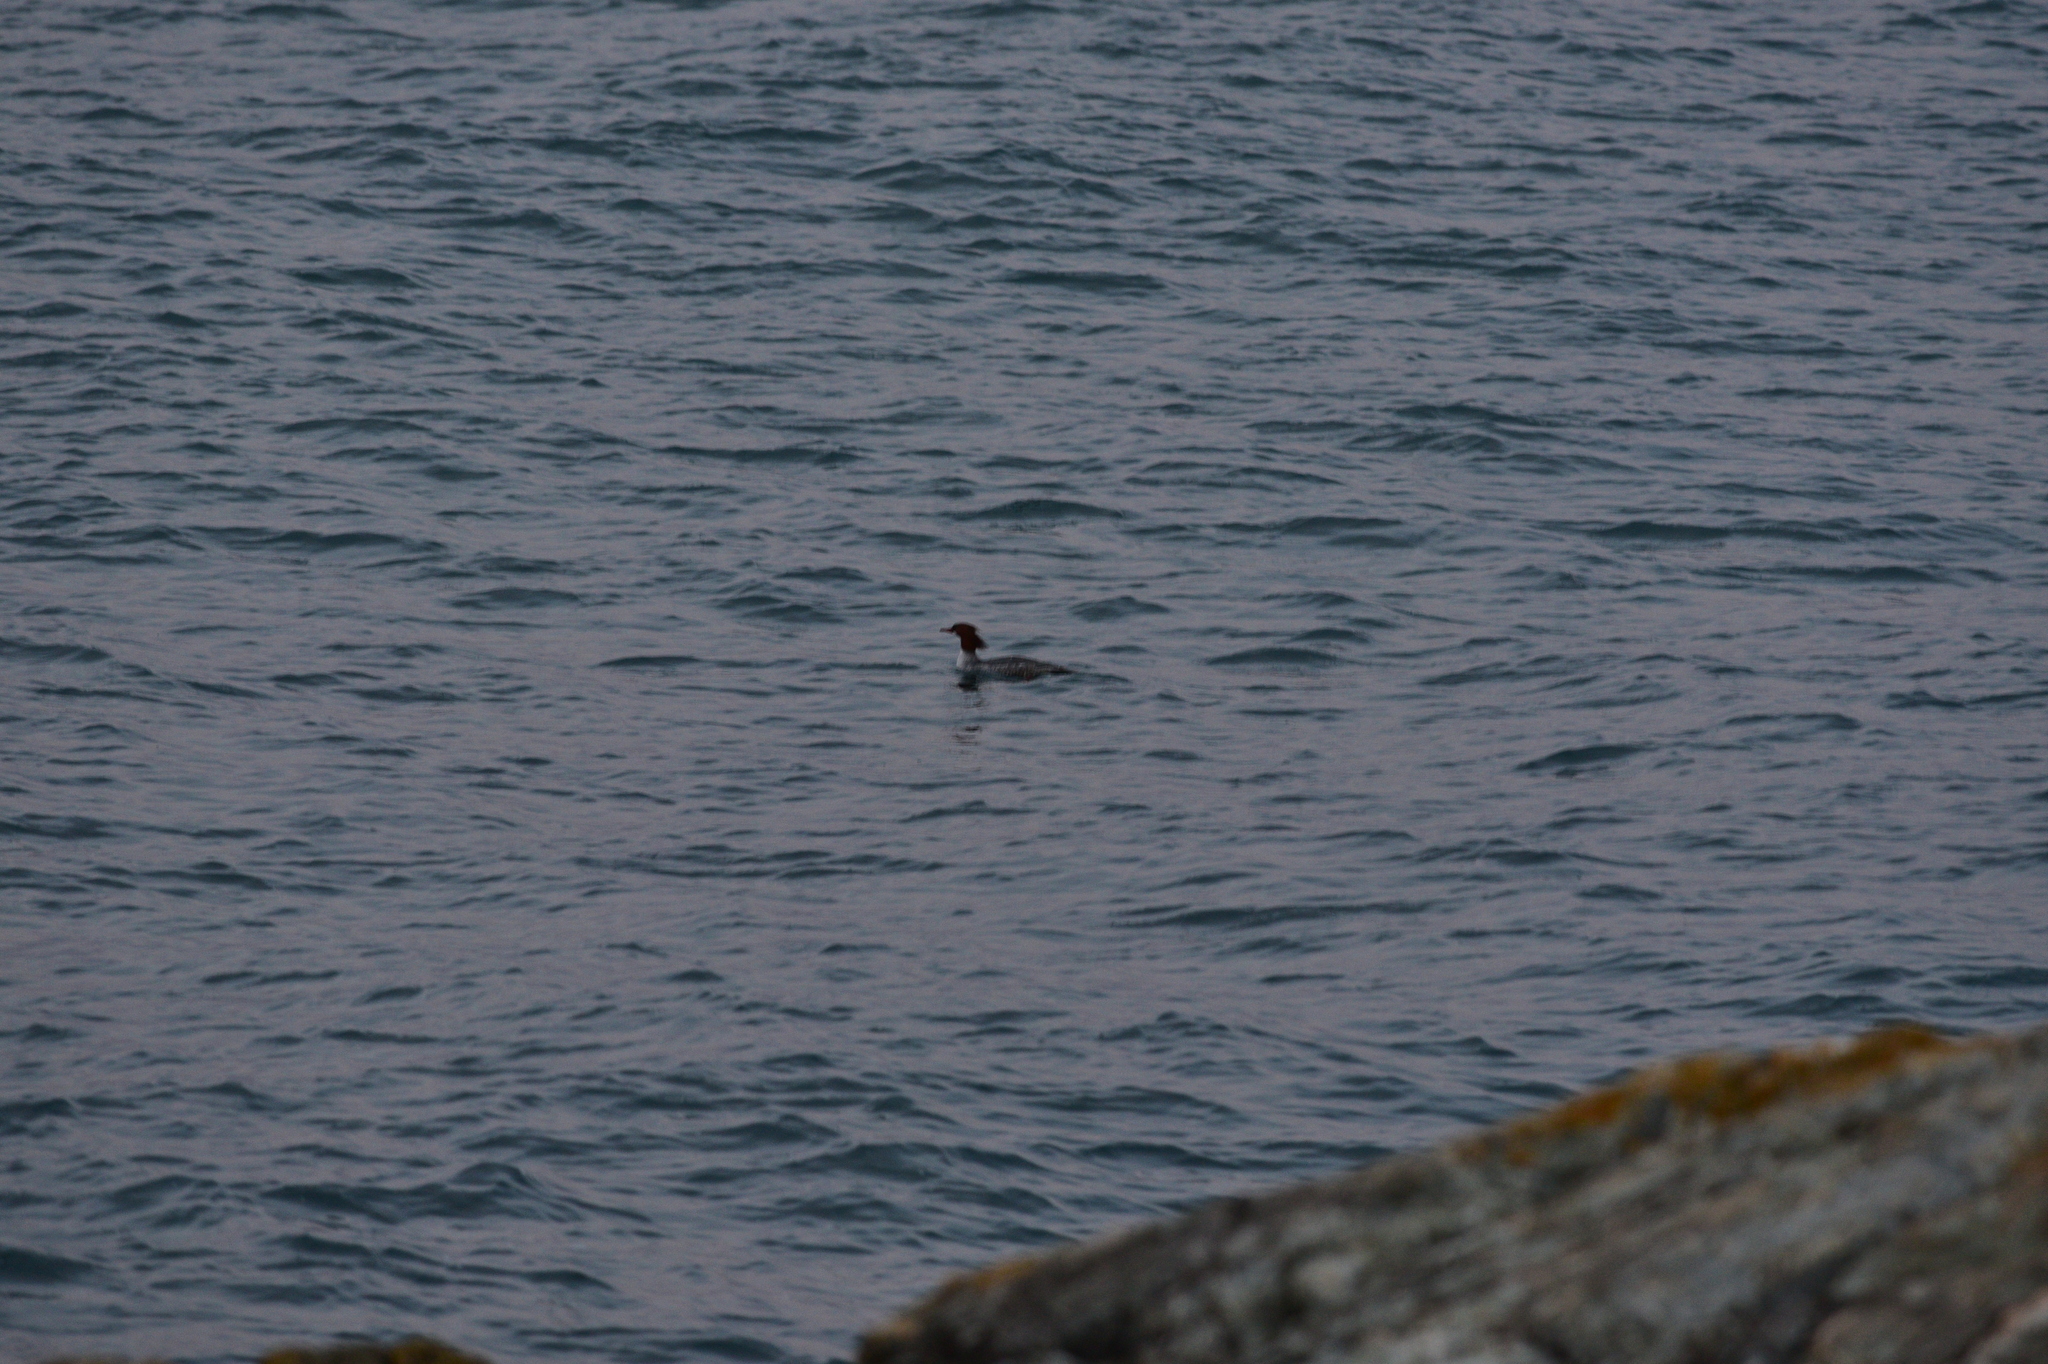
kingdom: Animalia
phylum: Chordata
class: Aves
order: Anseriformes
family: Anatidae
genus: Mergus
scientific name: Mergus merganser
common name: Common merganser
